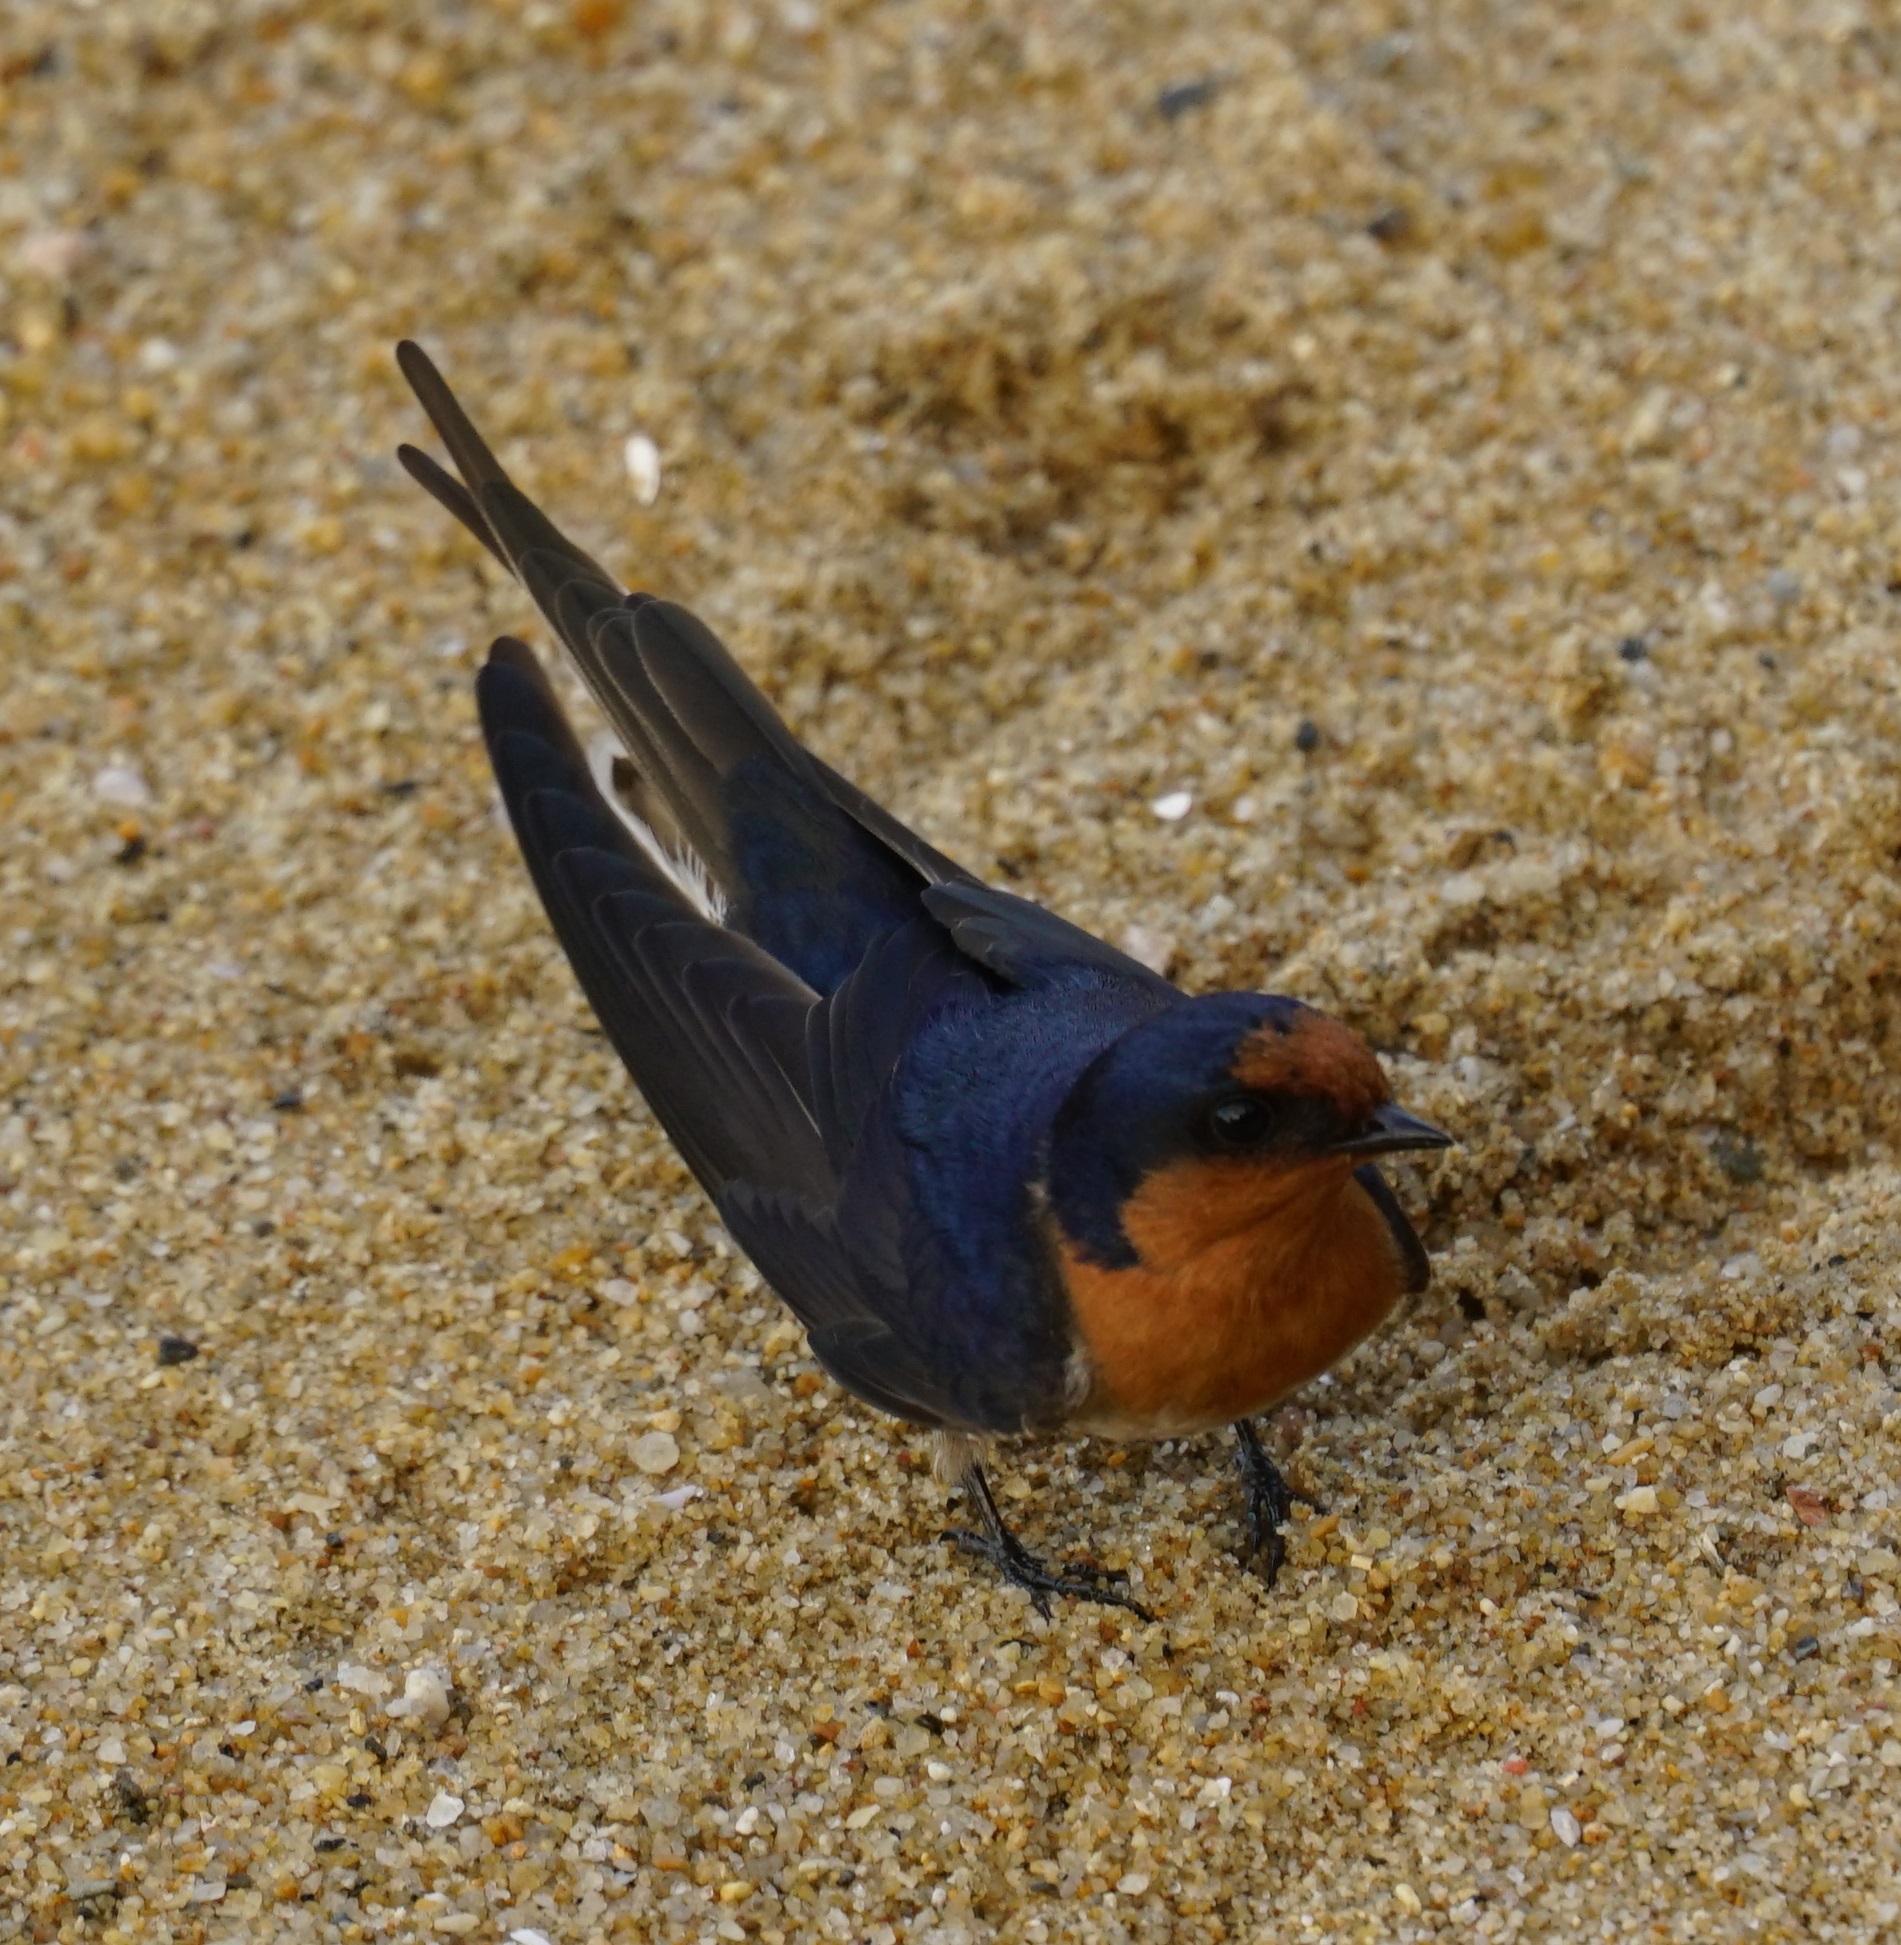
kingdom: Animalia
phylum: Chordata
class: Aves
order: Passeriformes
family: Hirundinidae
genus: Hirundo
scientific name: Hirundo neoxena
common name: Welcome swallow
